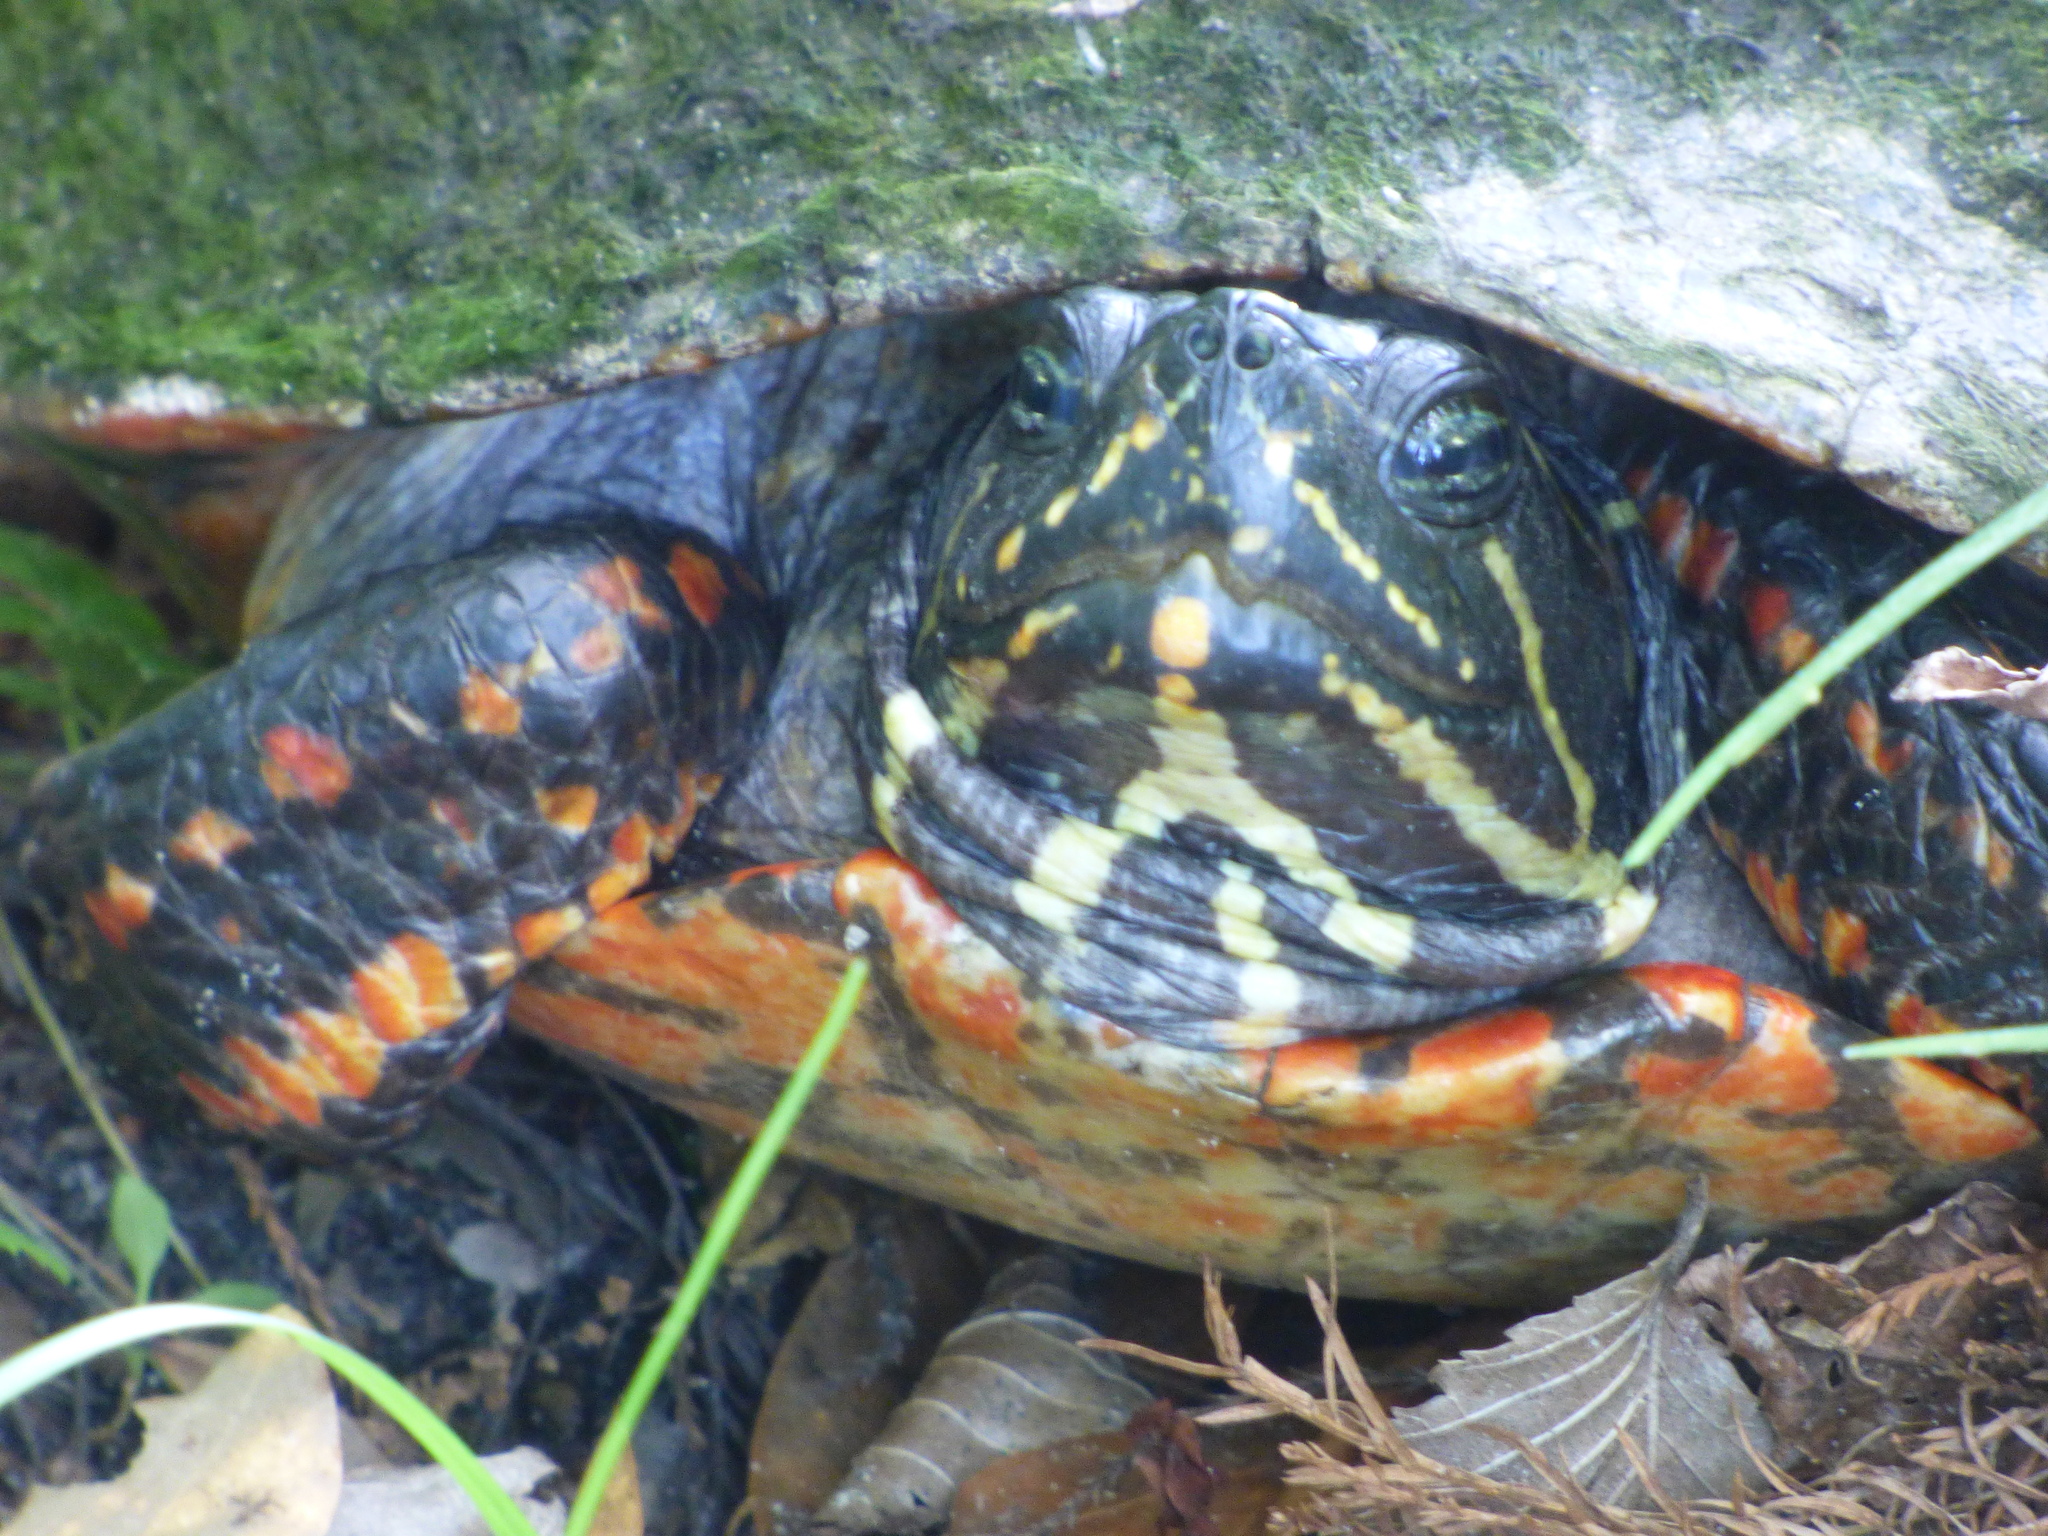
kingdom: Animalia
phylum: Chordata
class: Testudines
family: Emydidae
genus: Pseudemys
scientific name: Pseudemys nelsoni
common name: Florida red-bellied turtle
